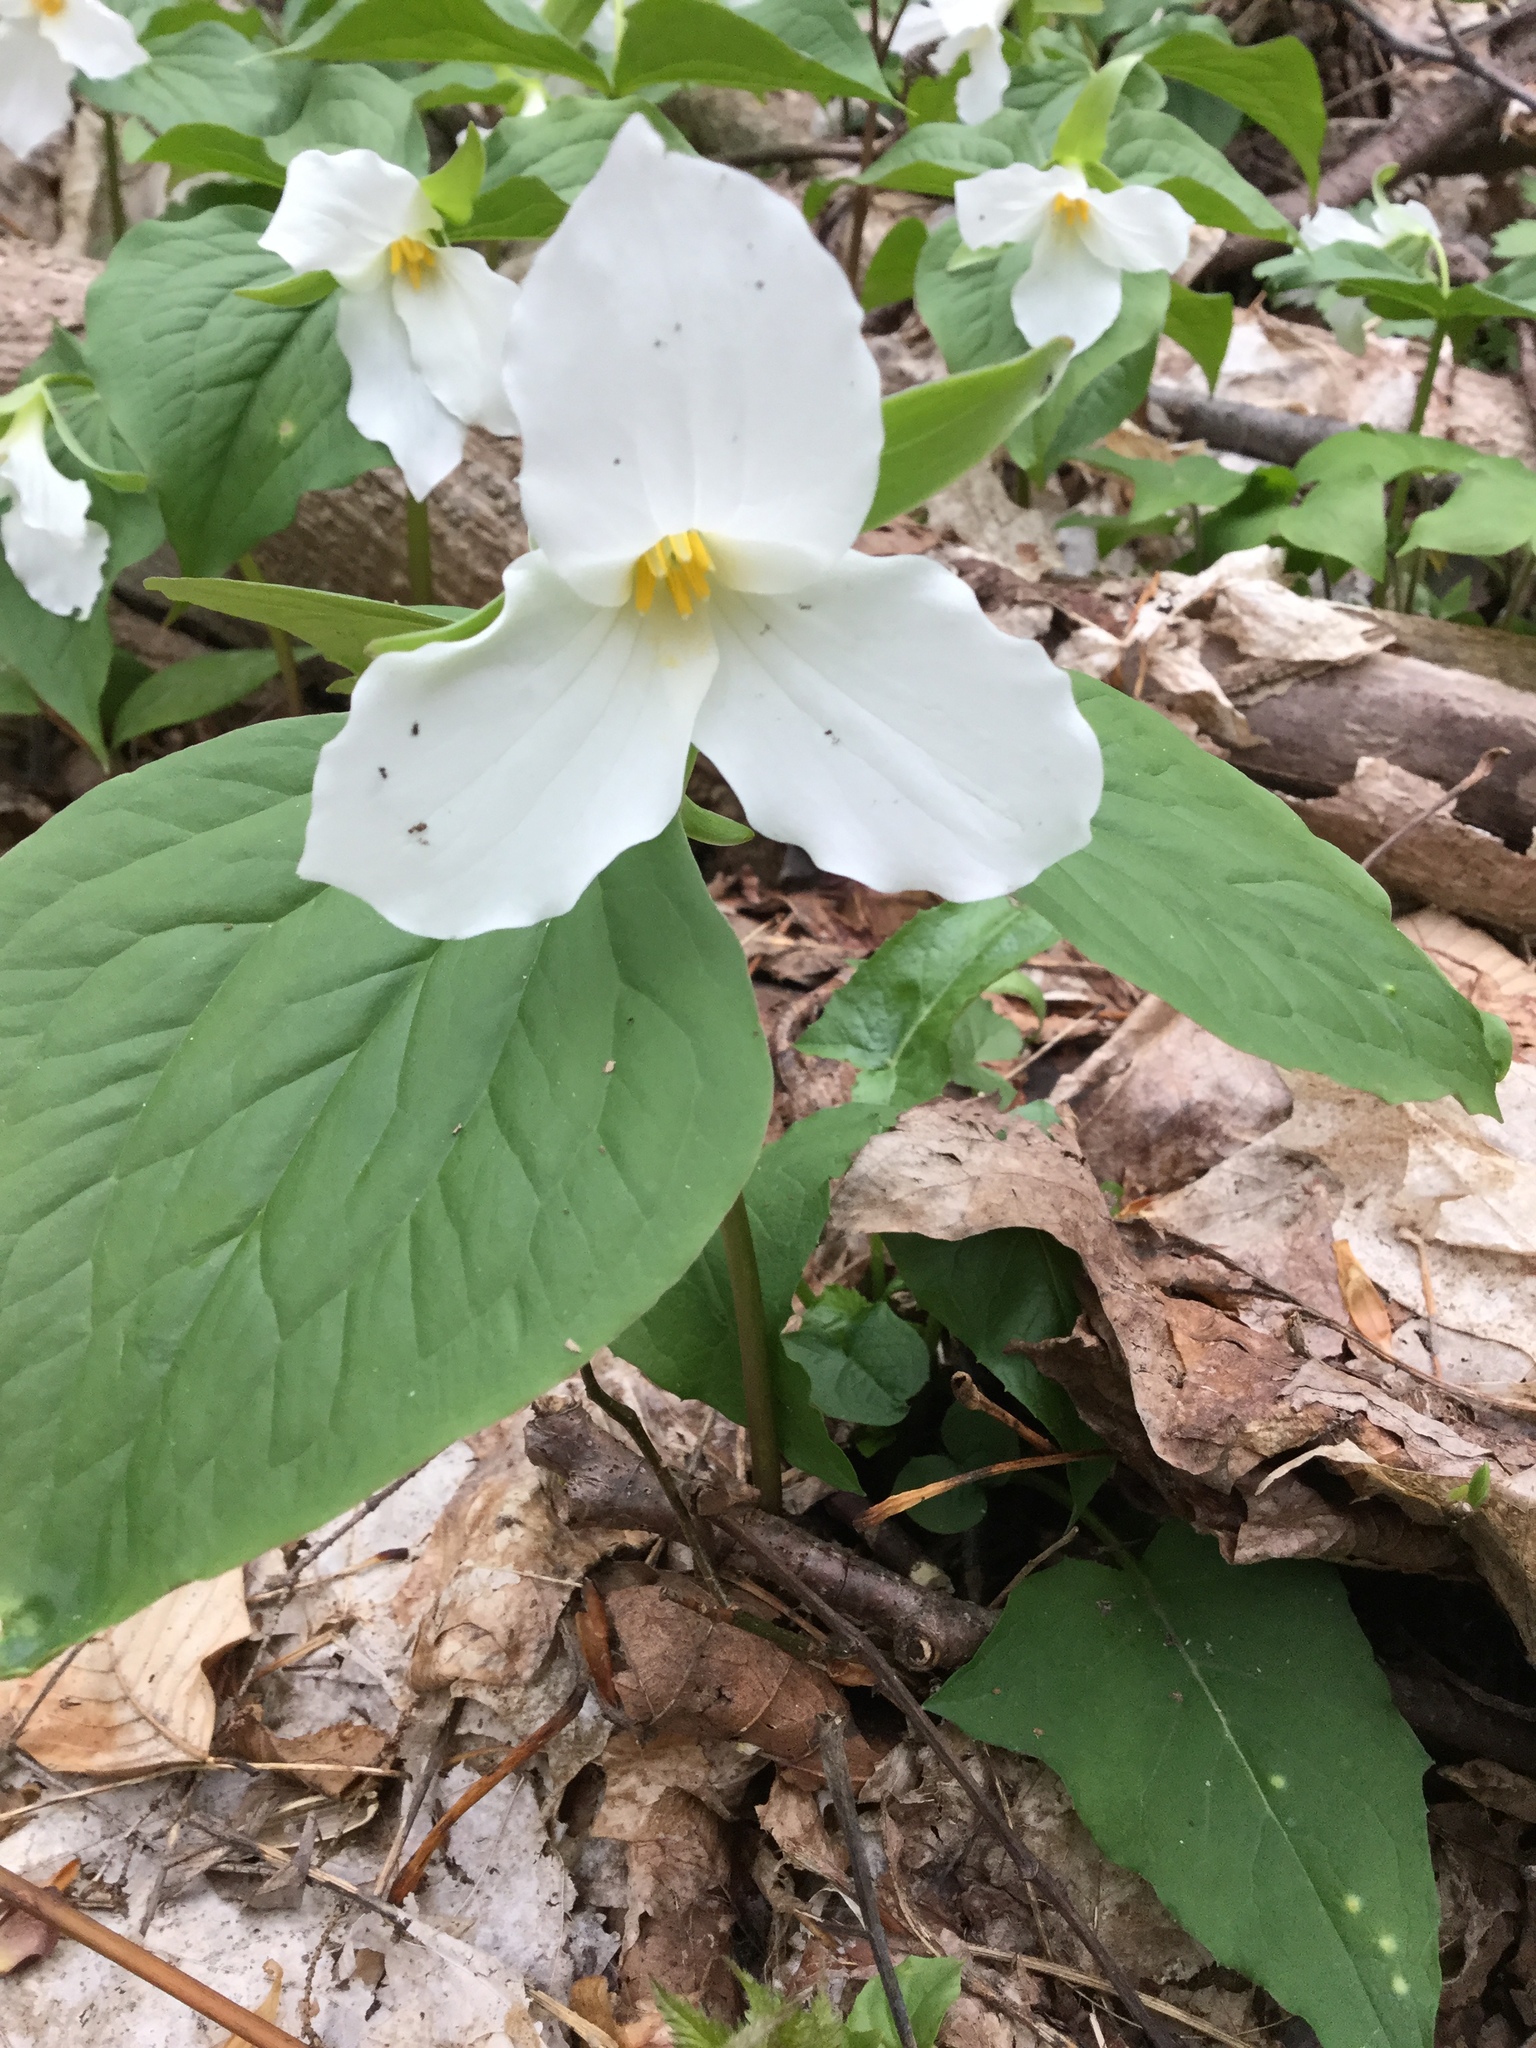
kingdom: Plantae
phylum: Tracheophyta
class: Liliopsida
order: Liliales
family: Melanthiaceae
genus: Trillium
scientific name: Trillium grandiflorum
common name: Great white trillium
